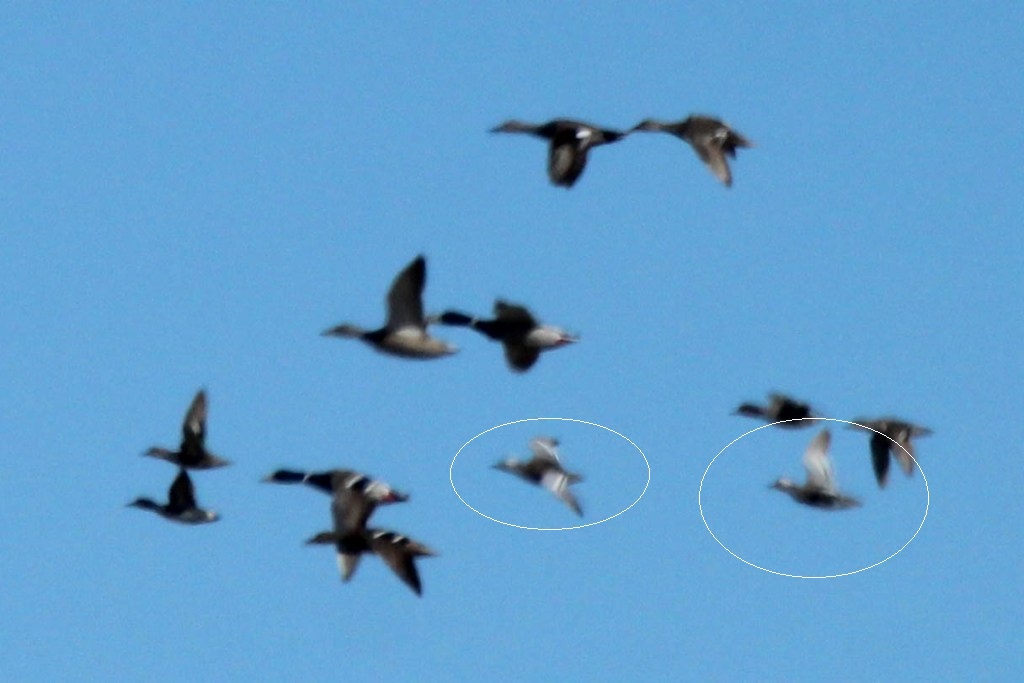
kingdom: Animalia
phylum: Chordata
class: Aves
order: Anseriformes
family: Anatidae
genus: Spatula
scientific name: Spatula querquedula
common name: Garganey
